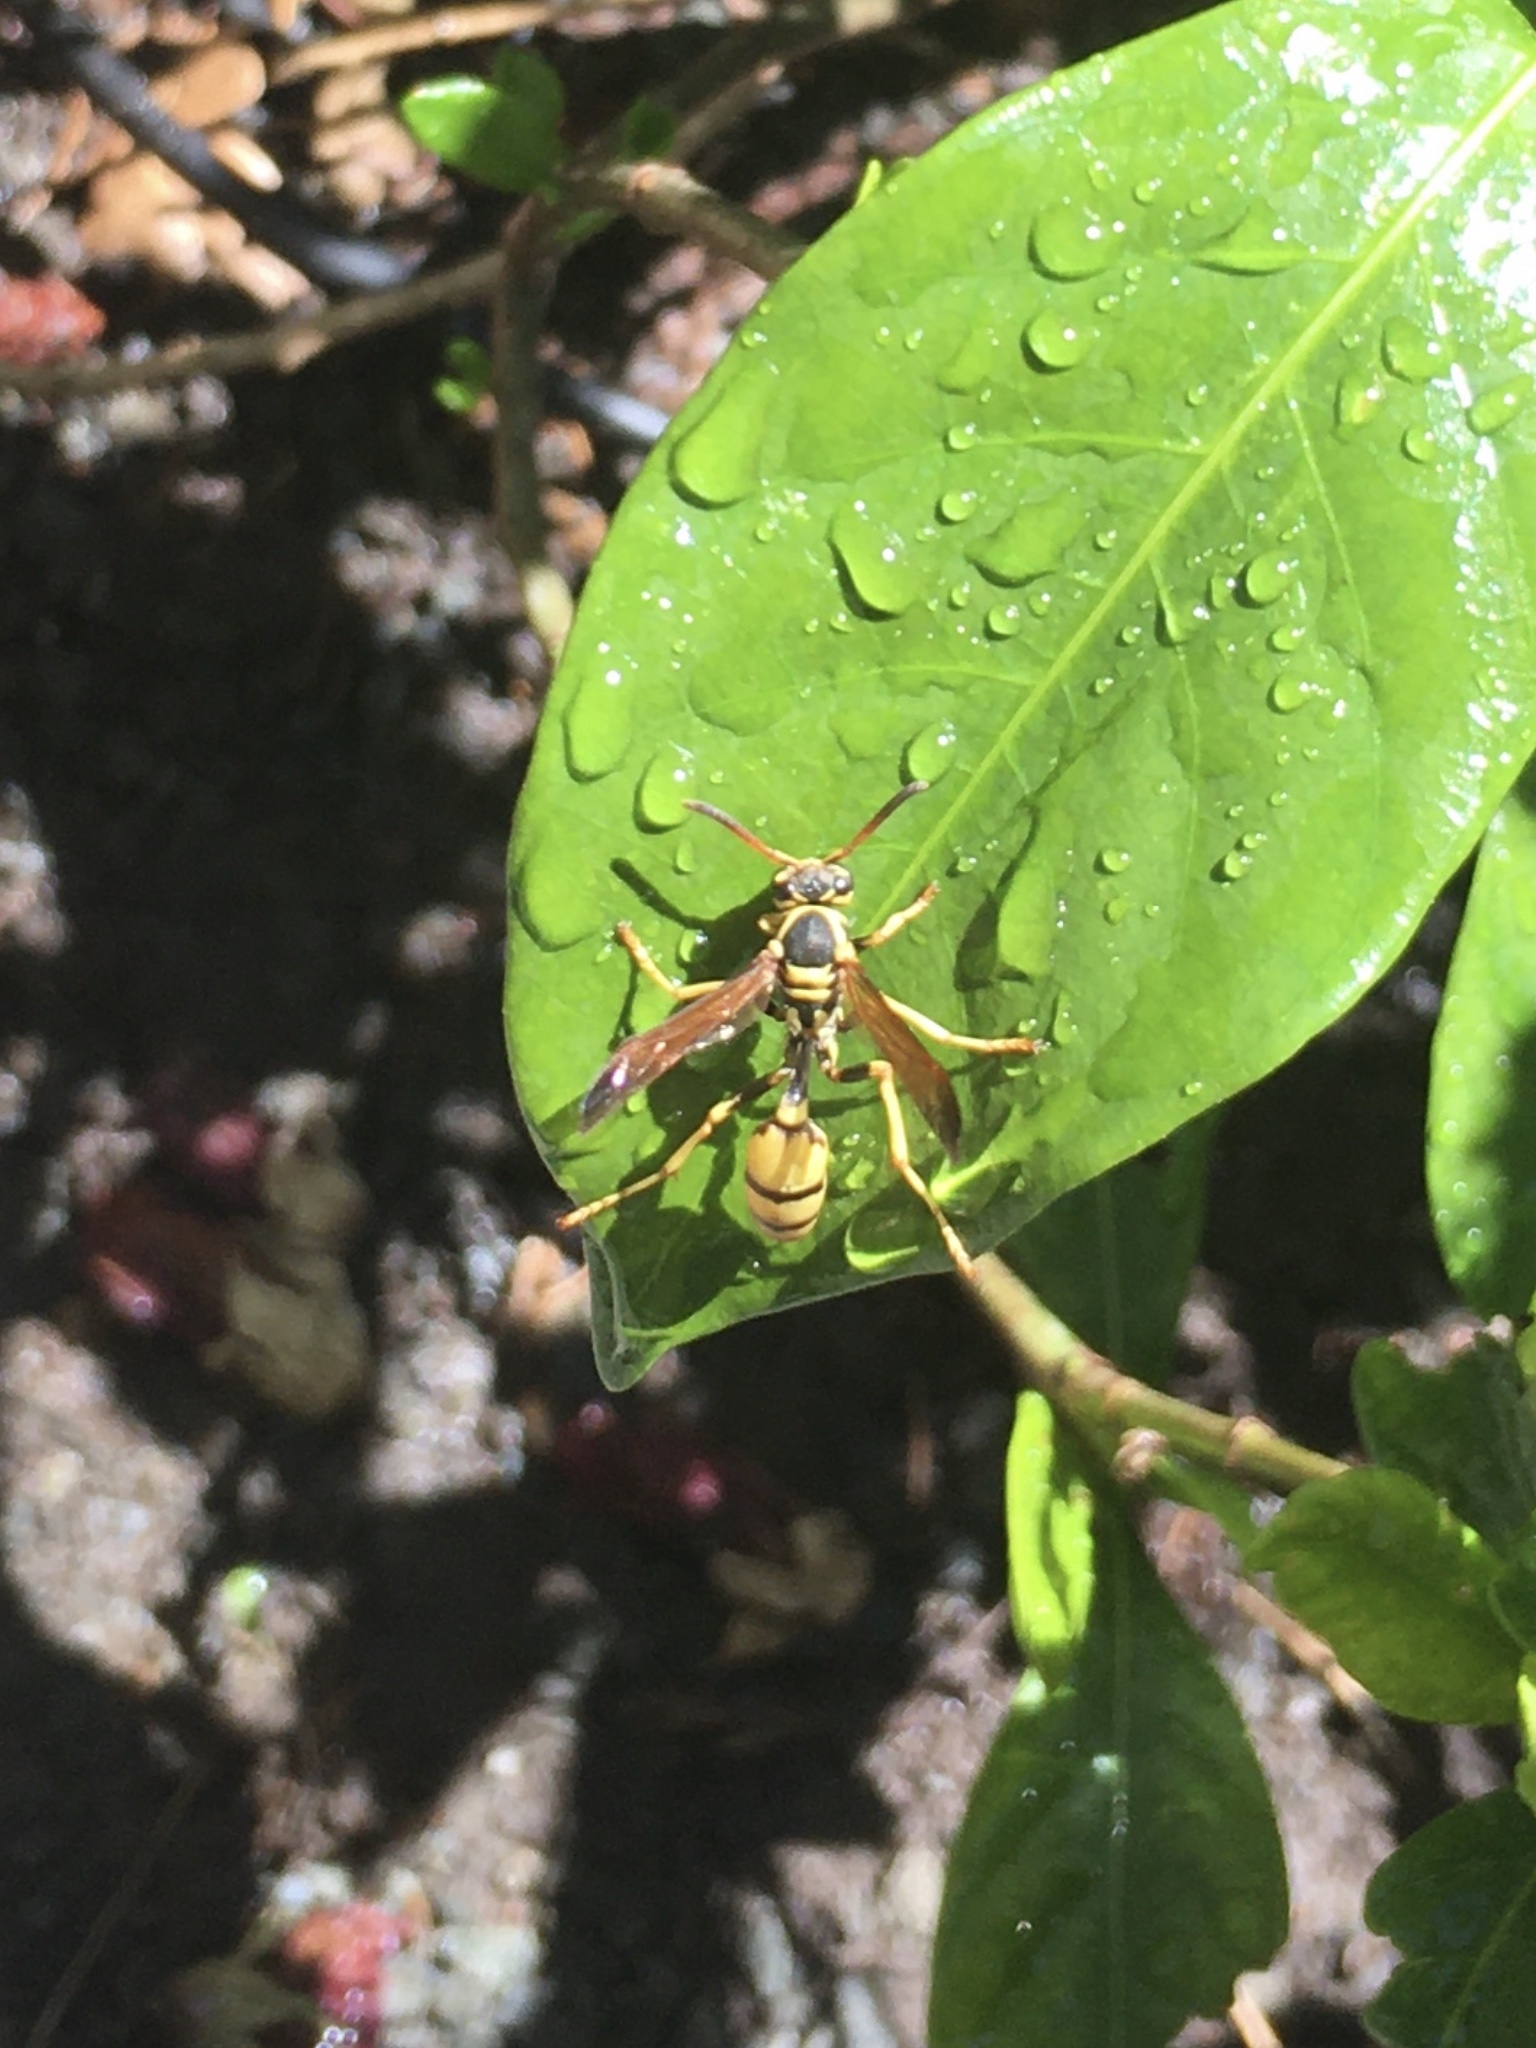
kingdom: Animalia
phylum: Arthropoda
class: Insecta
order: Hymenoptera
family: Vespidae
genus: Mischocyttarus
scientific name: Mischocyttarus flavitarsis
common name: Wasp
